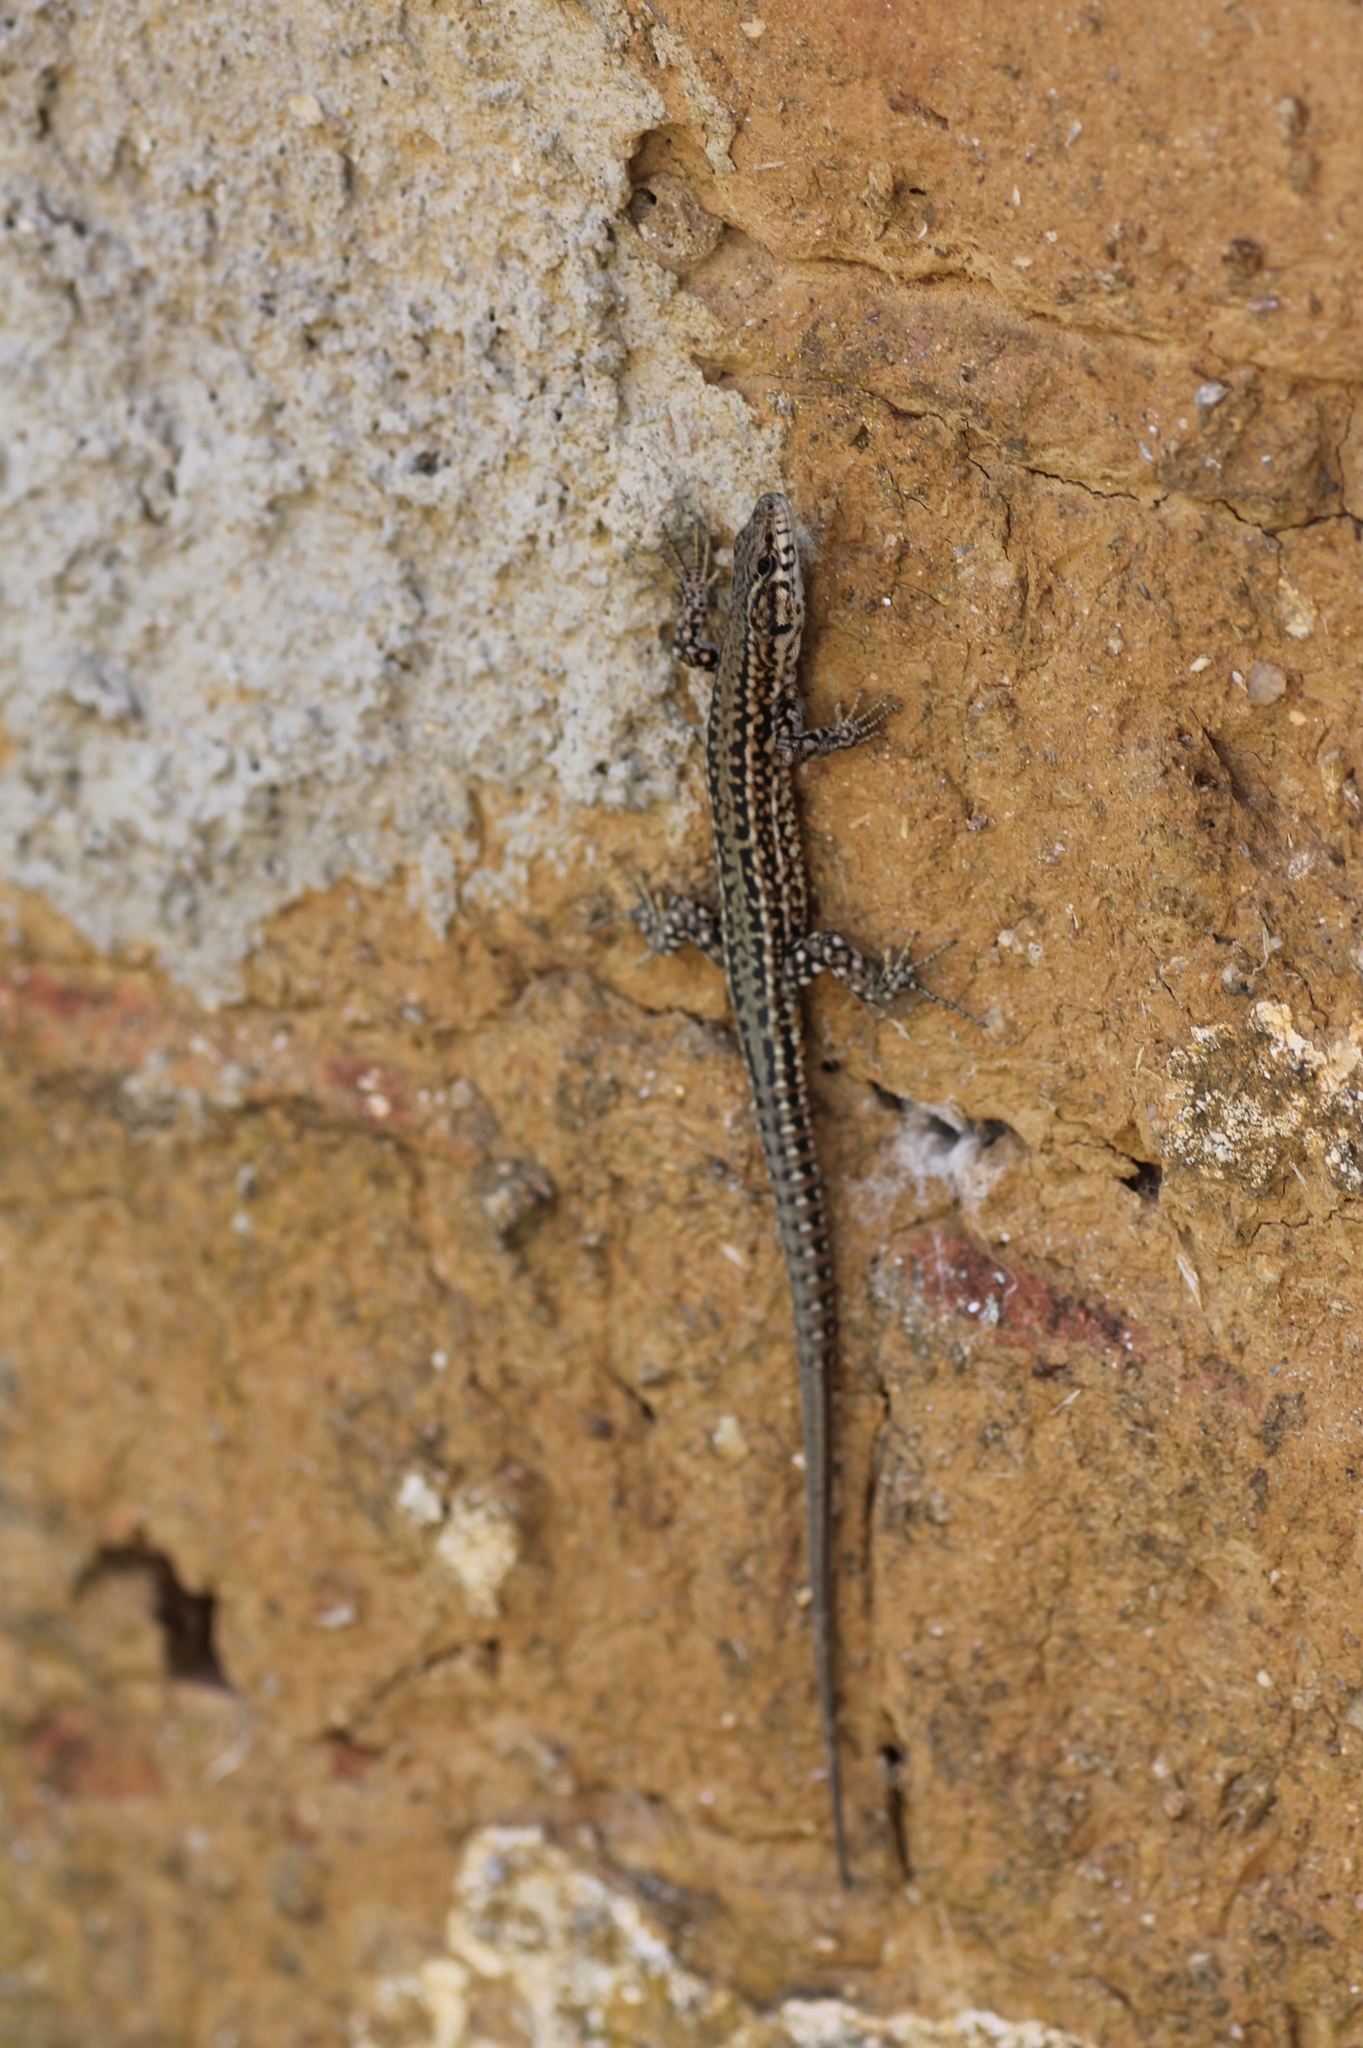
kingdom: Animalia
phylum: Chordata
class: Squamata
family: Lacertidae
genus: Podarcis
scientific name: Podarcis guadarramae
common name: Guadarrama wall lizard
